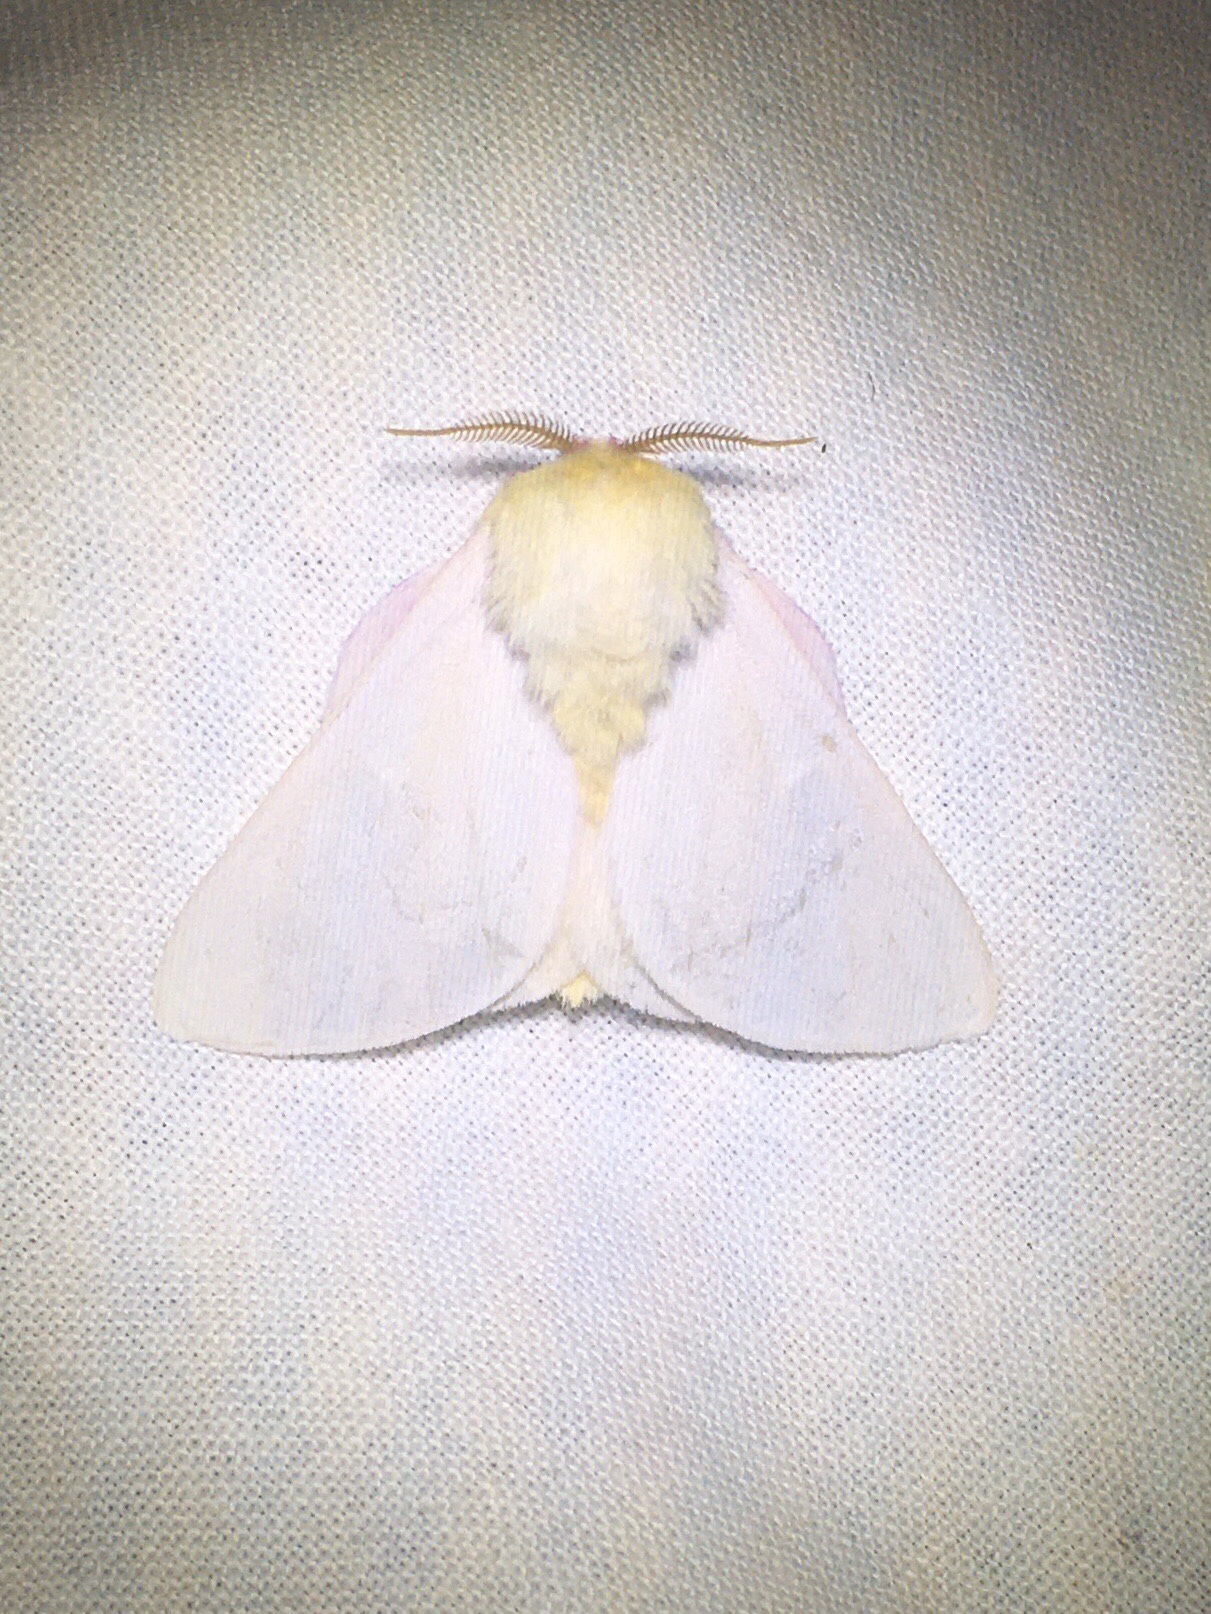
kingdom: Animalia
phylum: Arthropoda
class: Insecta
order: Lepidoptera
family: Saturniidae
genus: Dryocampa
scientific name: Dryocampa rubicunda
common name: Rosy maple moth
